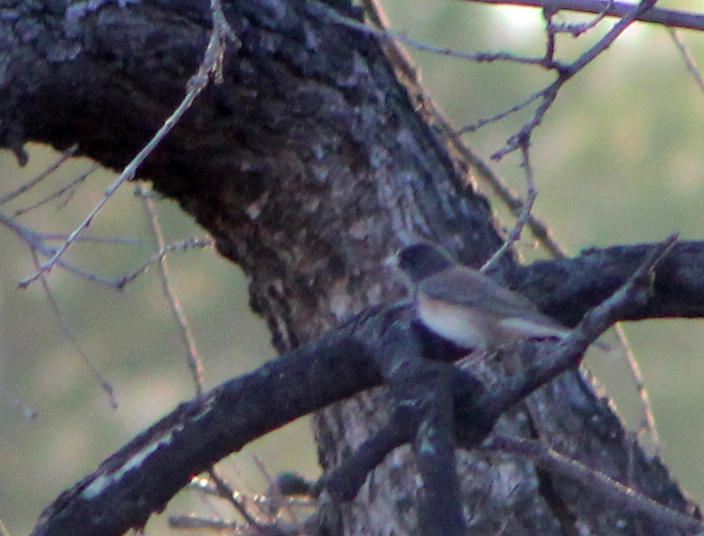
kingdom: Animalia
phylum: Chordata
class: Aves
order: Passeriformes
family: Passerellidae
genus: Junco
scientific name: Junco hyemalis
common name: Dark-eyed junco
